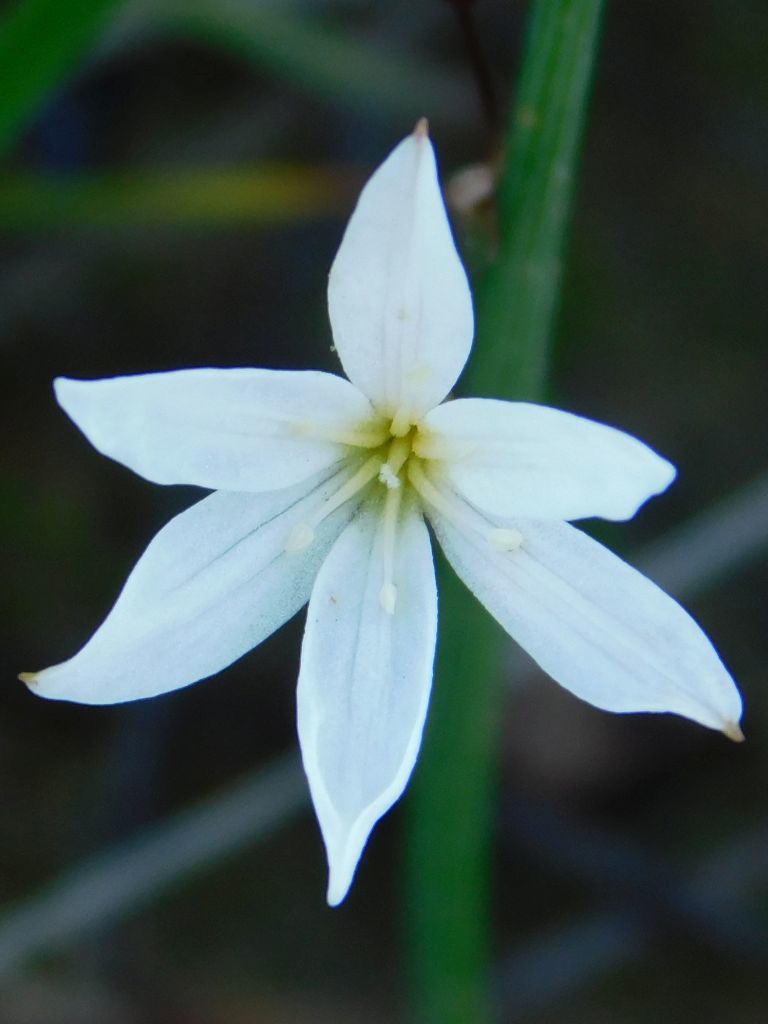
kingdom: Plantae
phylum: Tracheophyta
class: Liliopsida
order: Asparagales
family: Amaryllidaceae
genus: Strumaria
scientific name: Strumaria spiralis
